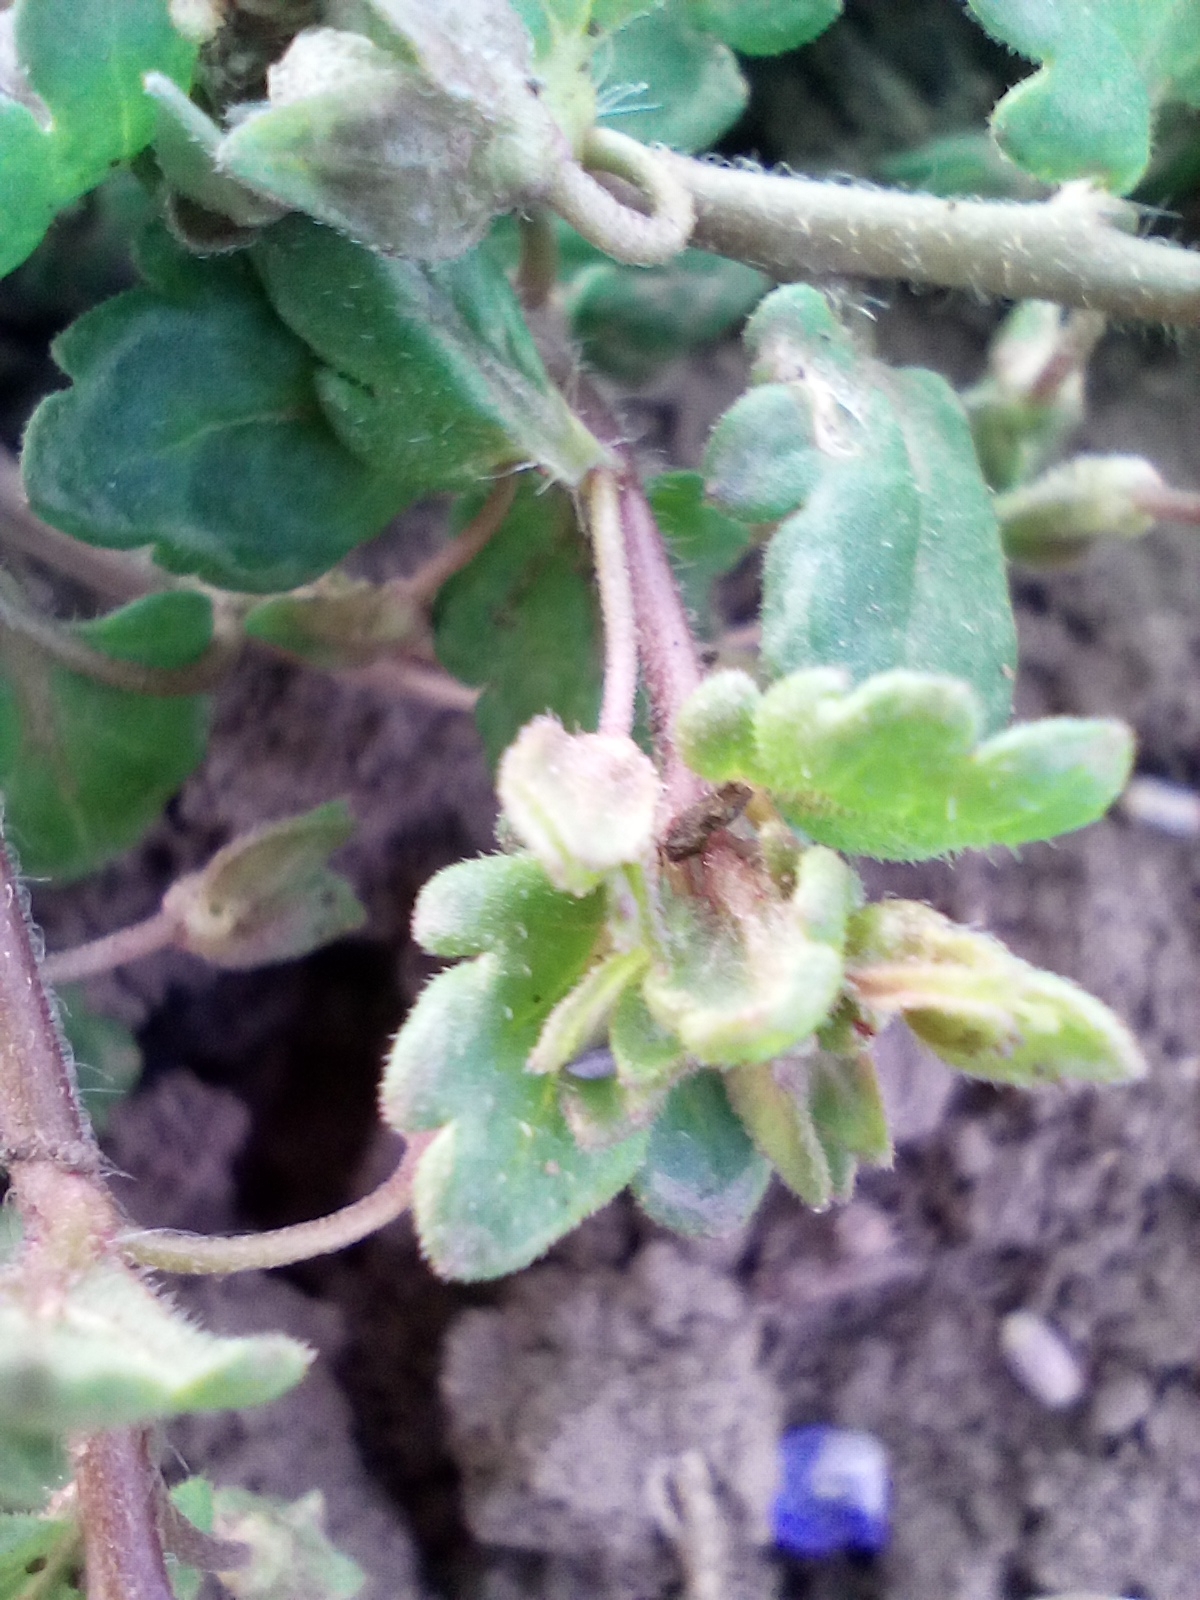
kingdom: Plantae
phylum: Tracheophyta
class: Magnoliopsida
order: Lamiales
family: Plantaginaceae
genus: Veronica
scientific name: Veronica polita
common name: Grey field-speedwell
